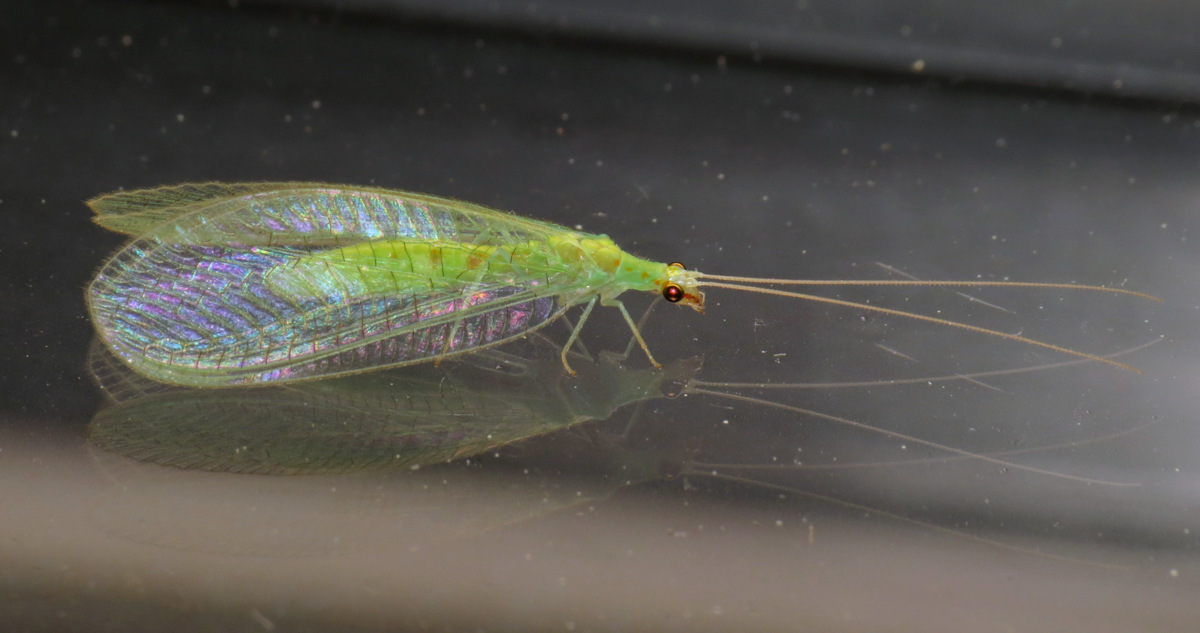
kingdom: Animalia
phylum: Arthropoda
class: Insecta
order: Neuroptera
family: Chrysopidae
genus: Chrysopa
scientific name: Chrysopa quadripunctata
